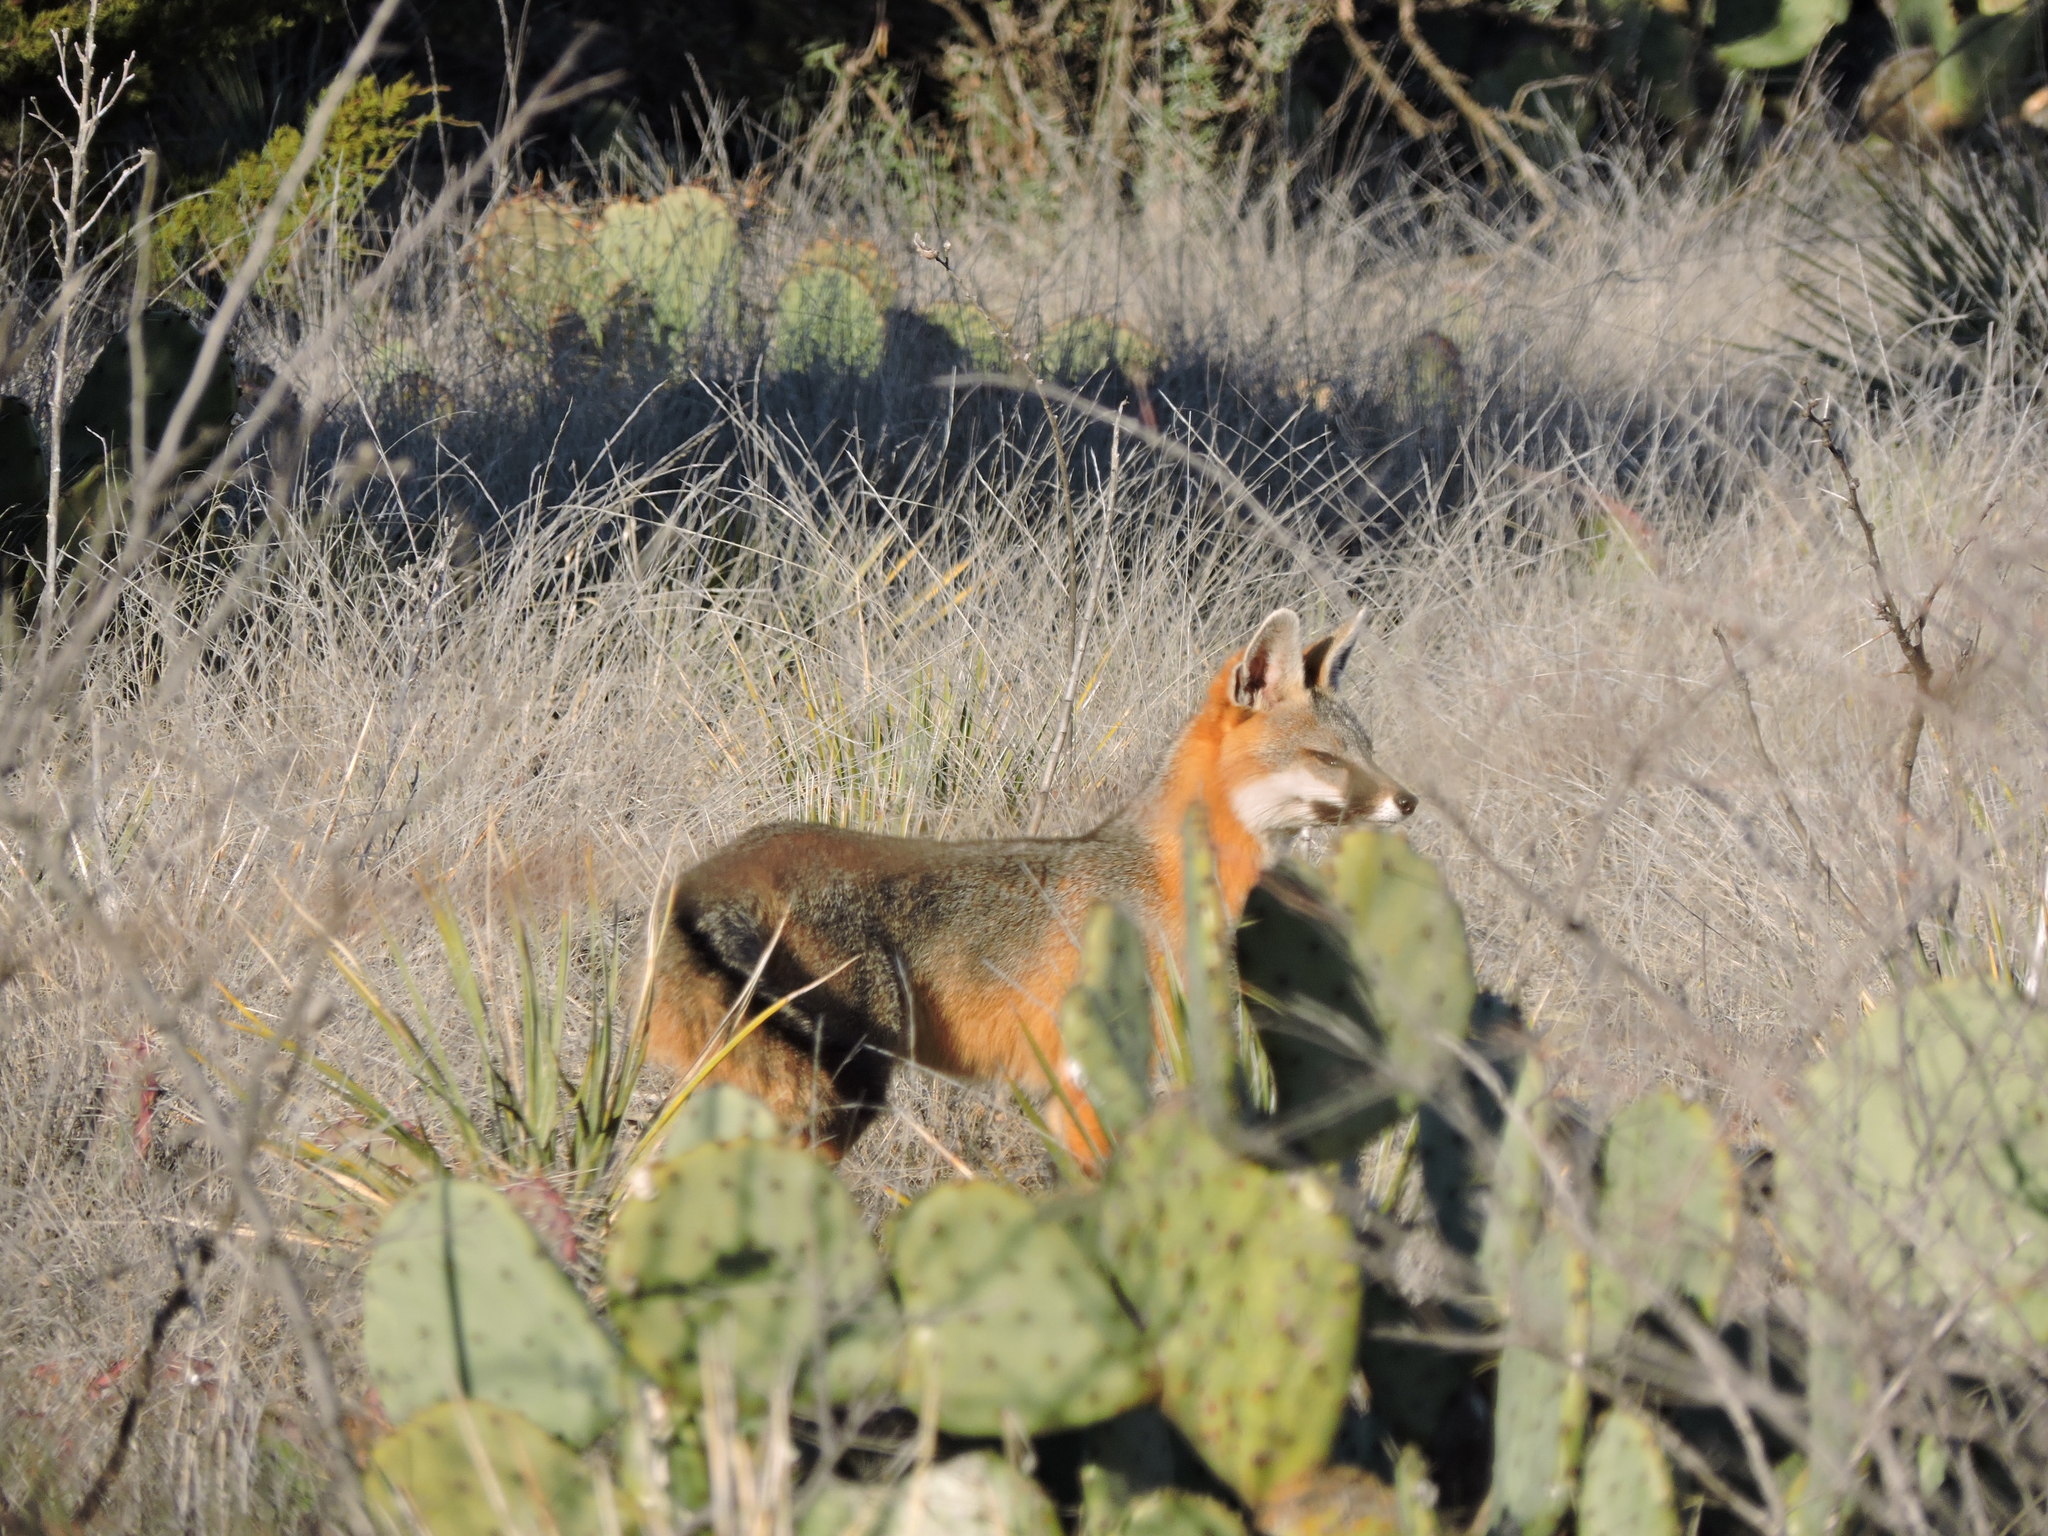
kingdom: Animalia
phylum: Chordata
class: Mammalia
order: Carnivora
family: Canidae
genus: Urocyon
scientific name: Urocyon cinereoargenteus
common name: Gray fox
